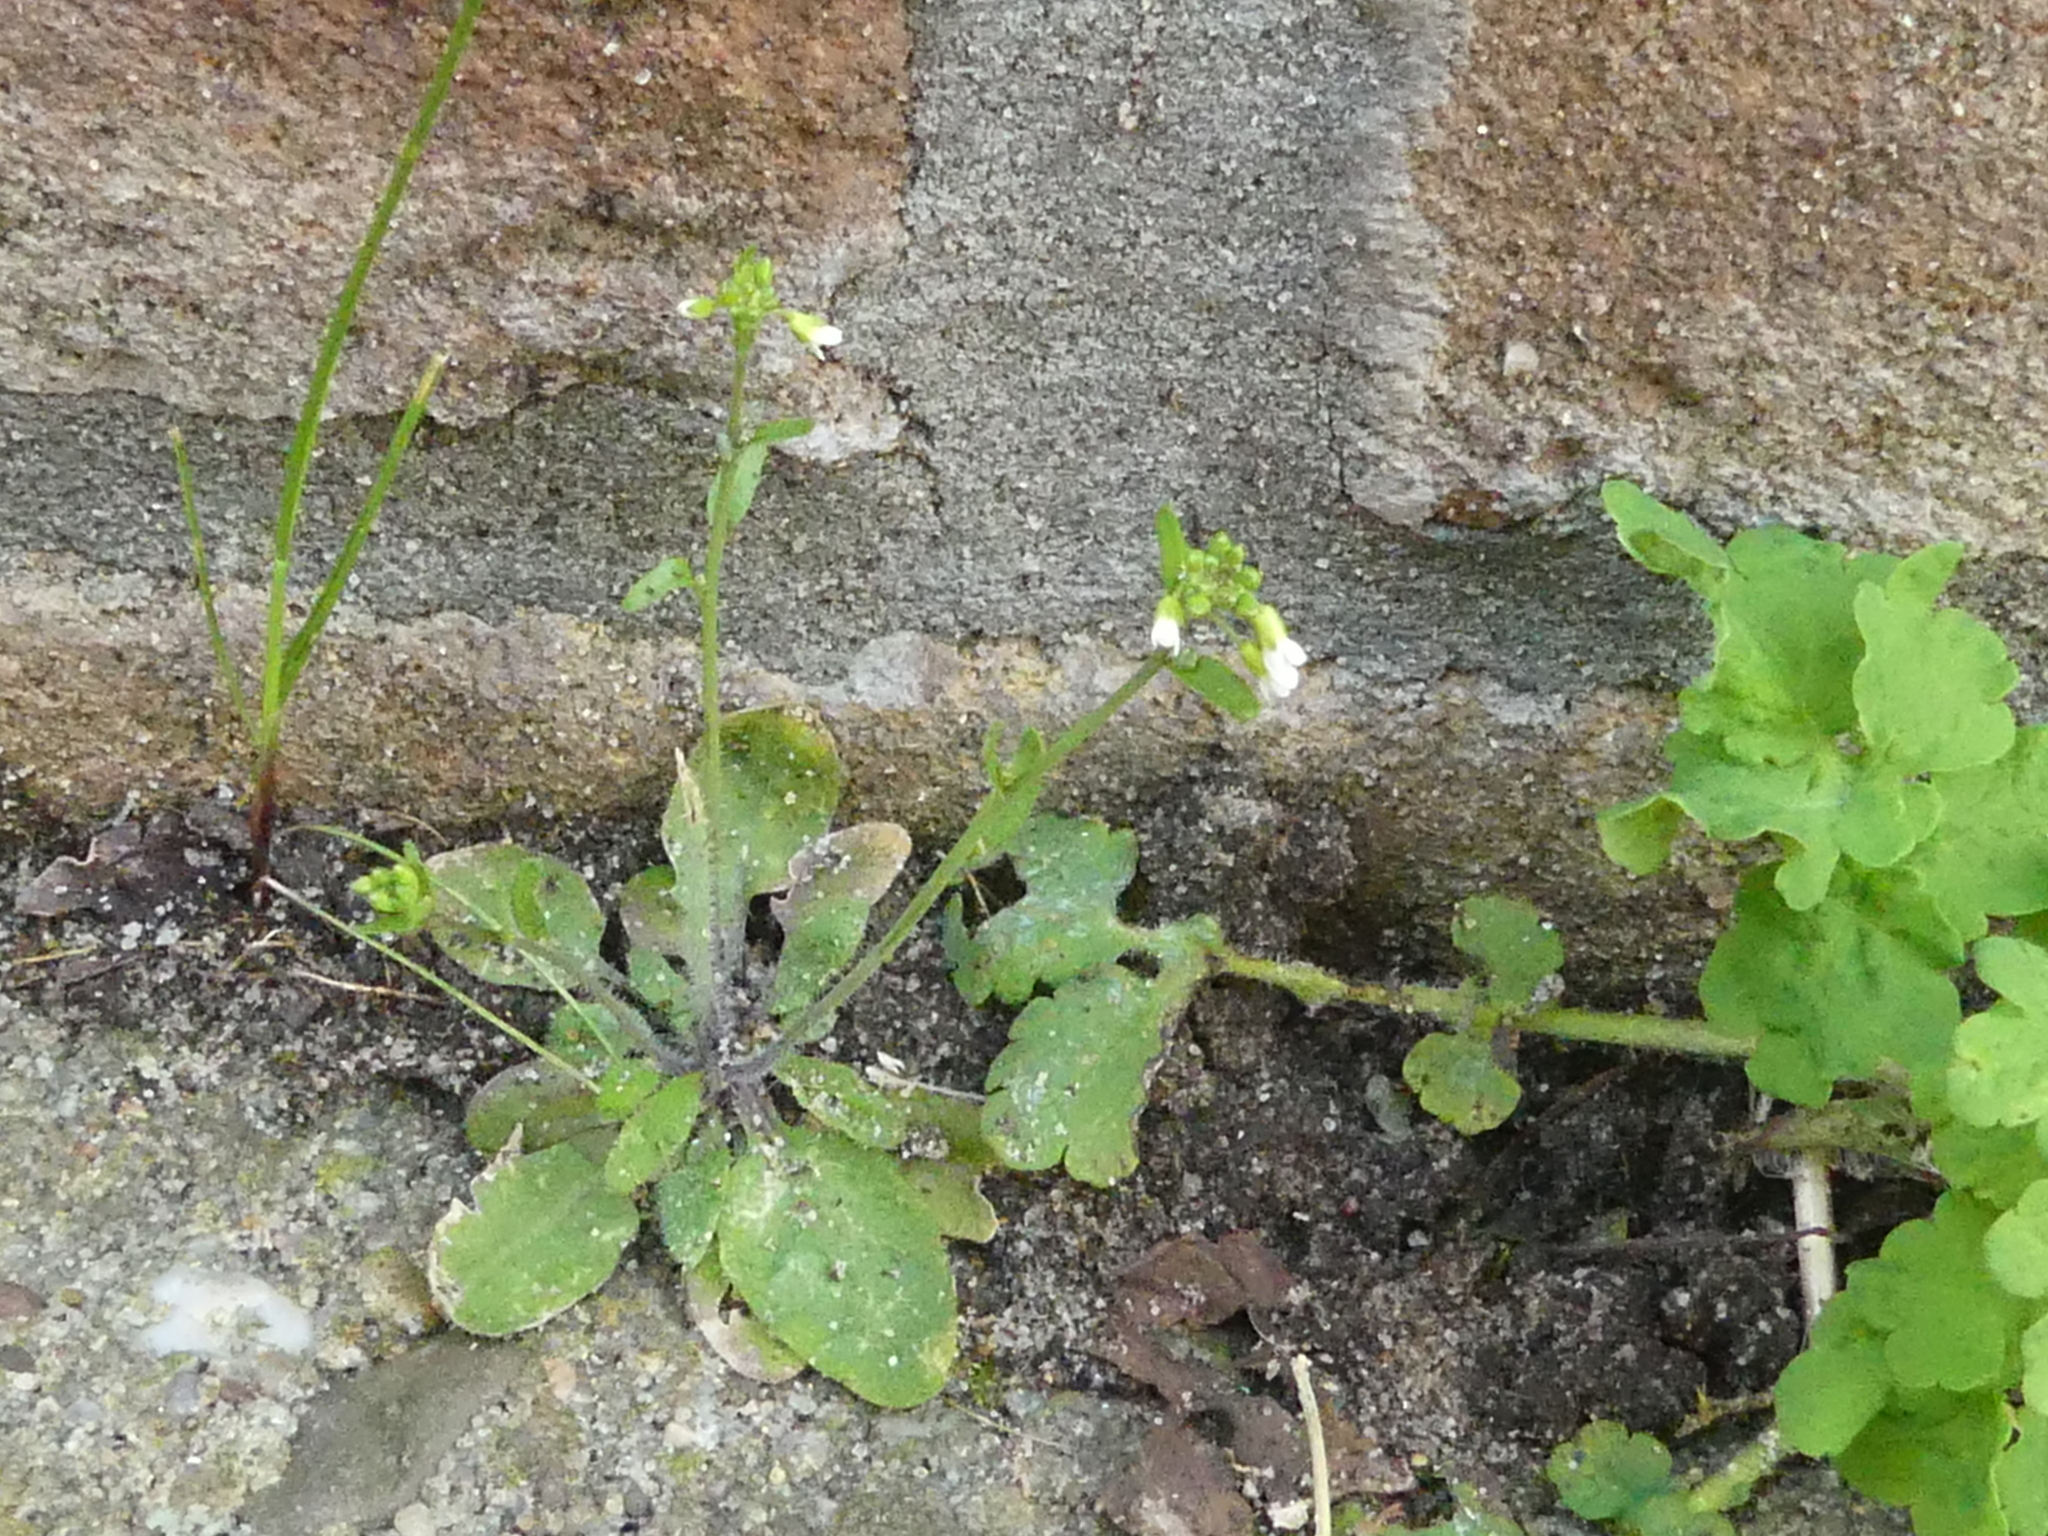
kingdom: Plantae
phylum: Tracheophyta
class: Magnoliopsida
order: Brassicales
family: Brassicaceae
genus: Arabidopsis
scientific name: Arabidopsis thaliana
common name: Thale cress
